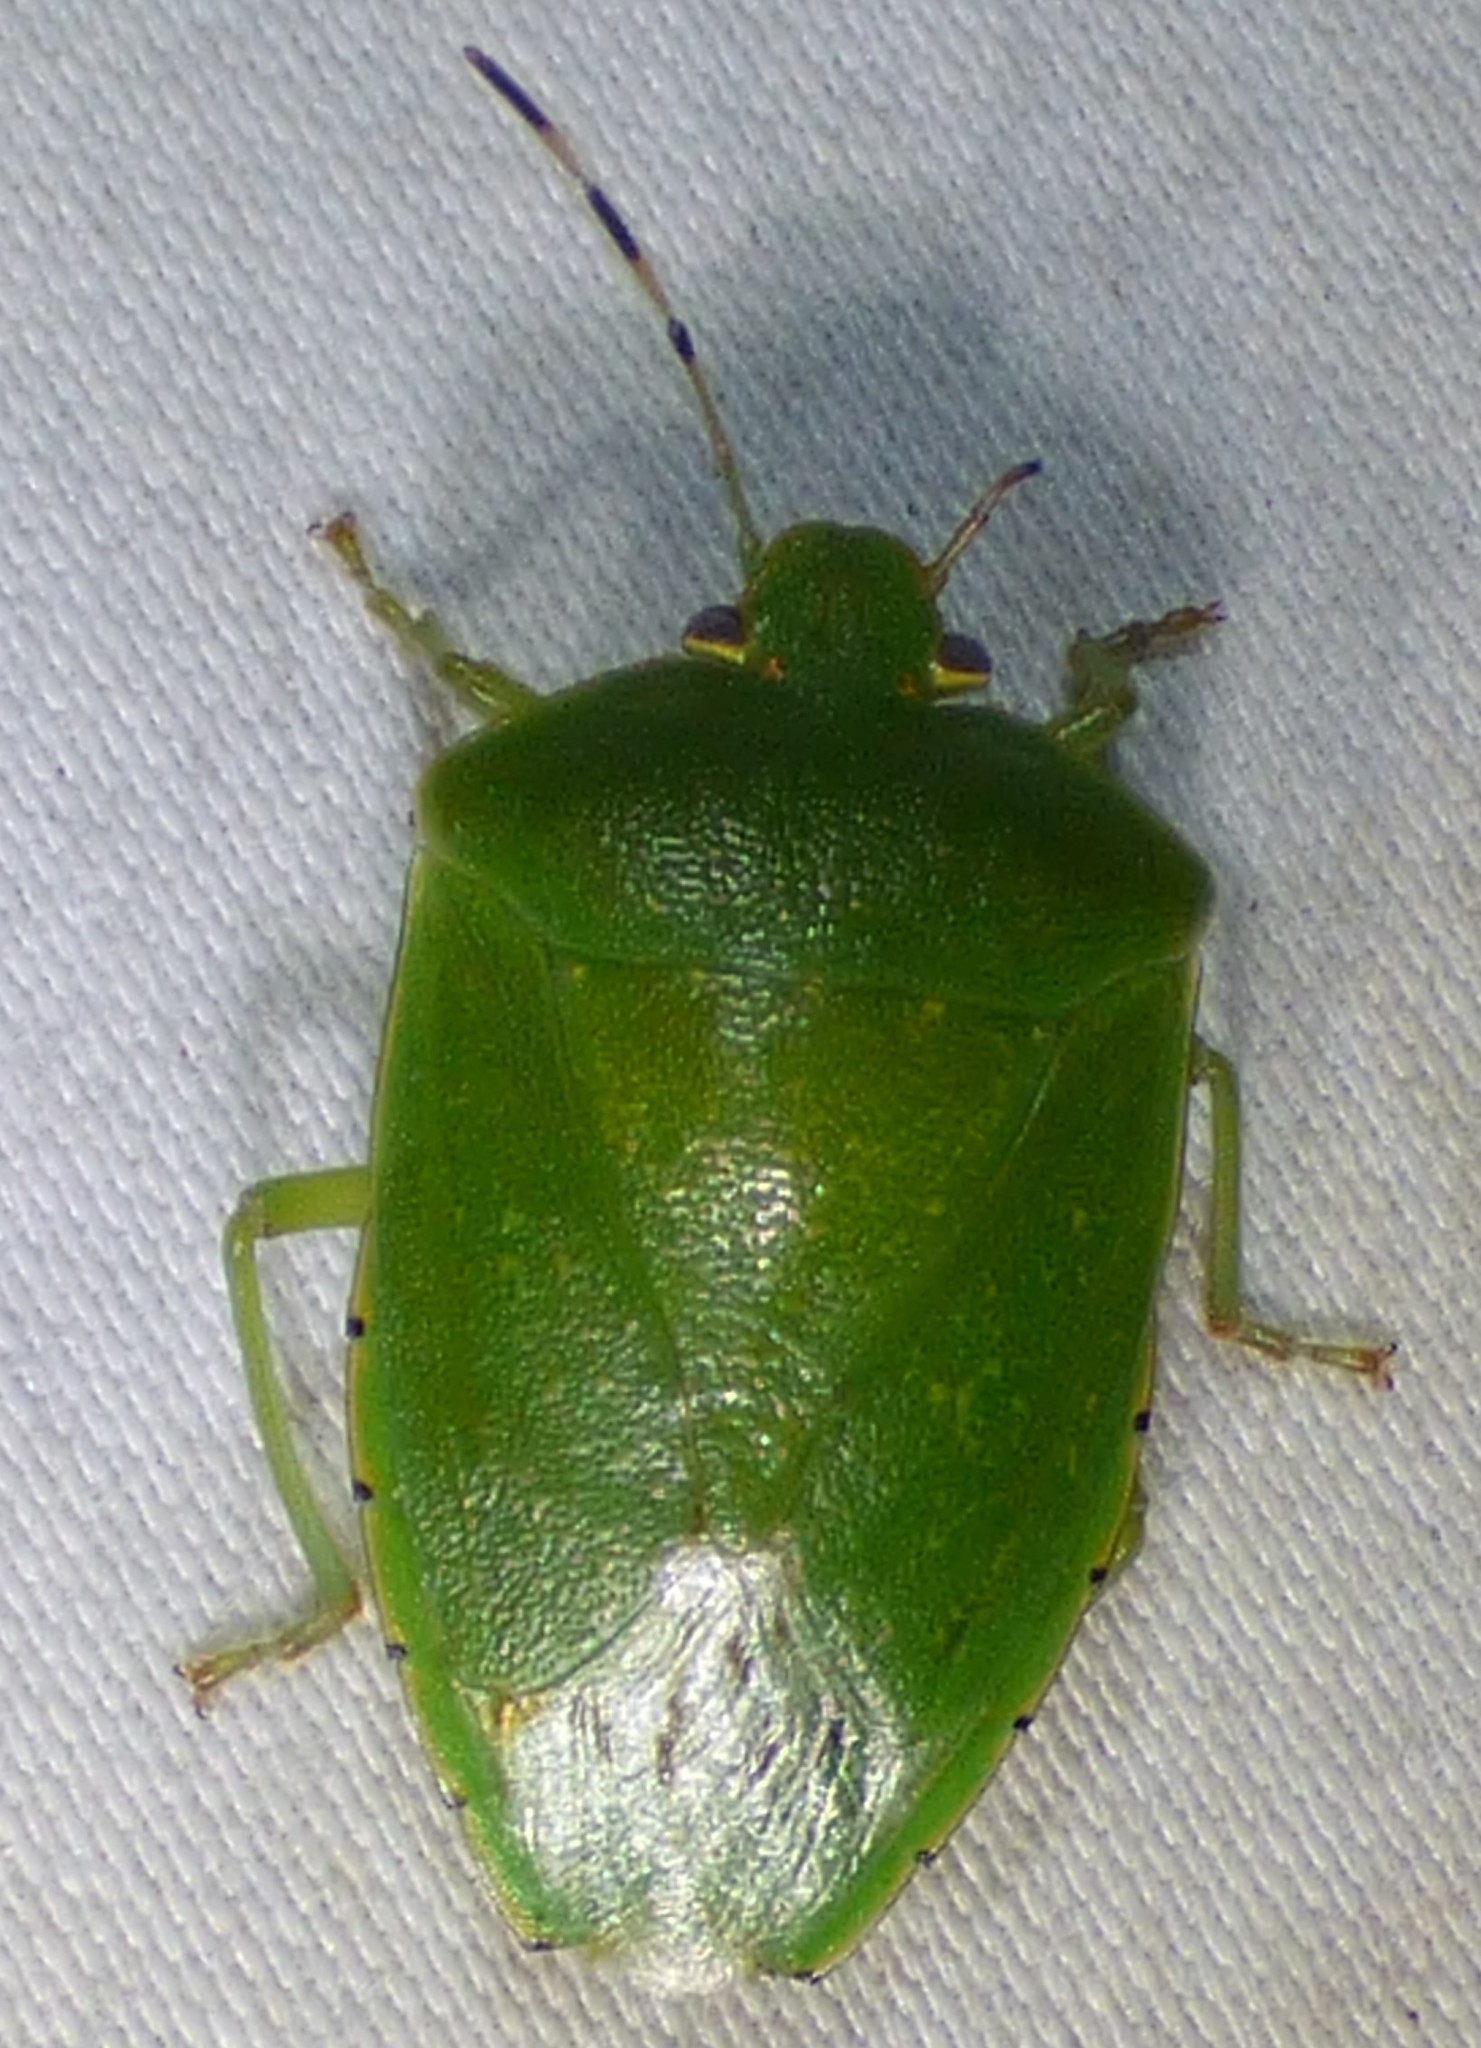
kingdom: Animalia
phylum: Arthropoda
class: Insecta
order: Hemiptera
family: Pentatomidae
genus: Chinavia
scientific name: Chinavia hilaris
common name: Green stink bug
